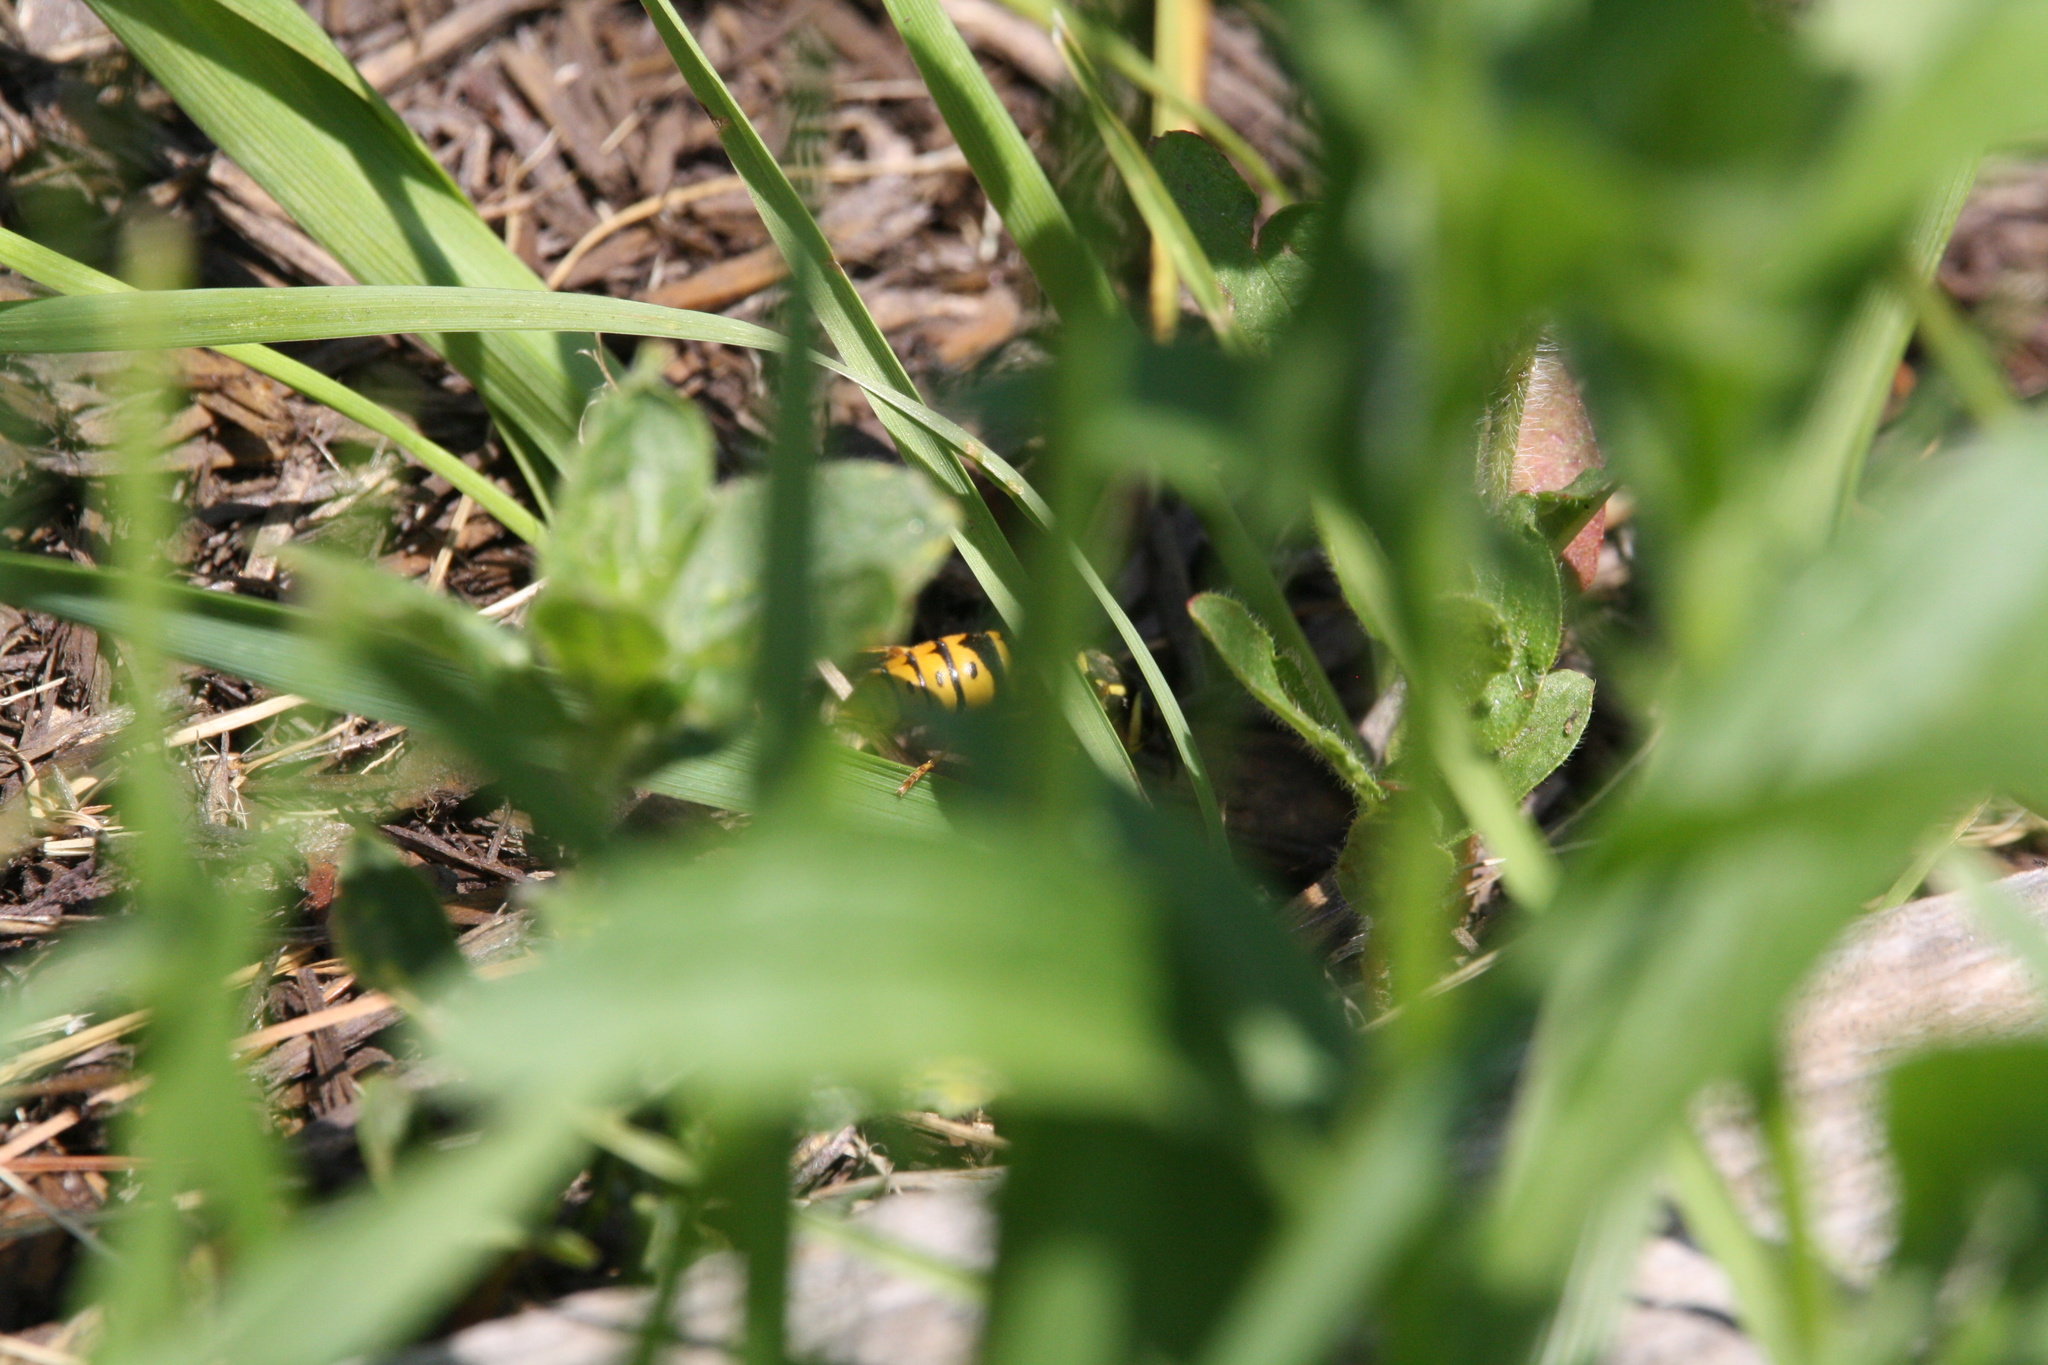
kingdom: Animalia
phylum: Arthropoda
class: Insecta
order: Hymenoptera
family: Vespidae
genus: Vespula
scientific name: Vespula maculifrons
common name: Eastern yellowjacket
